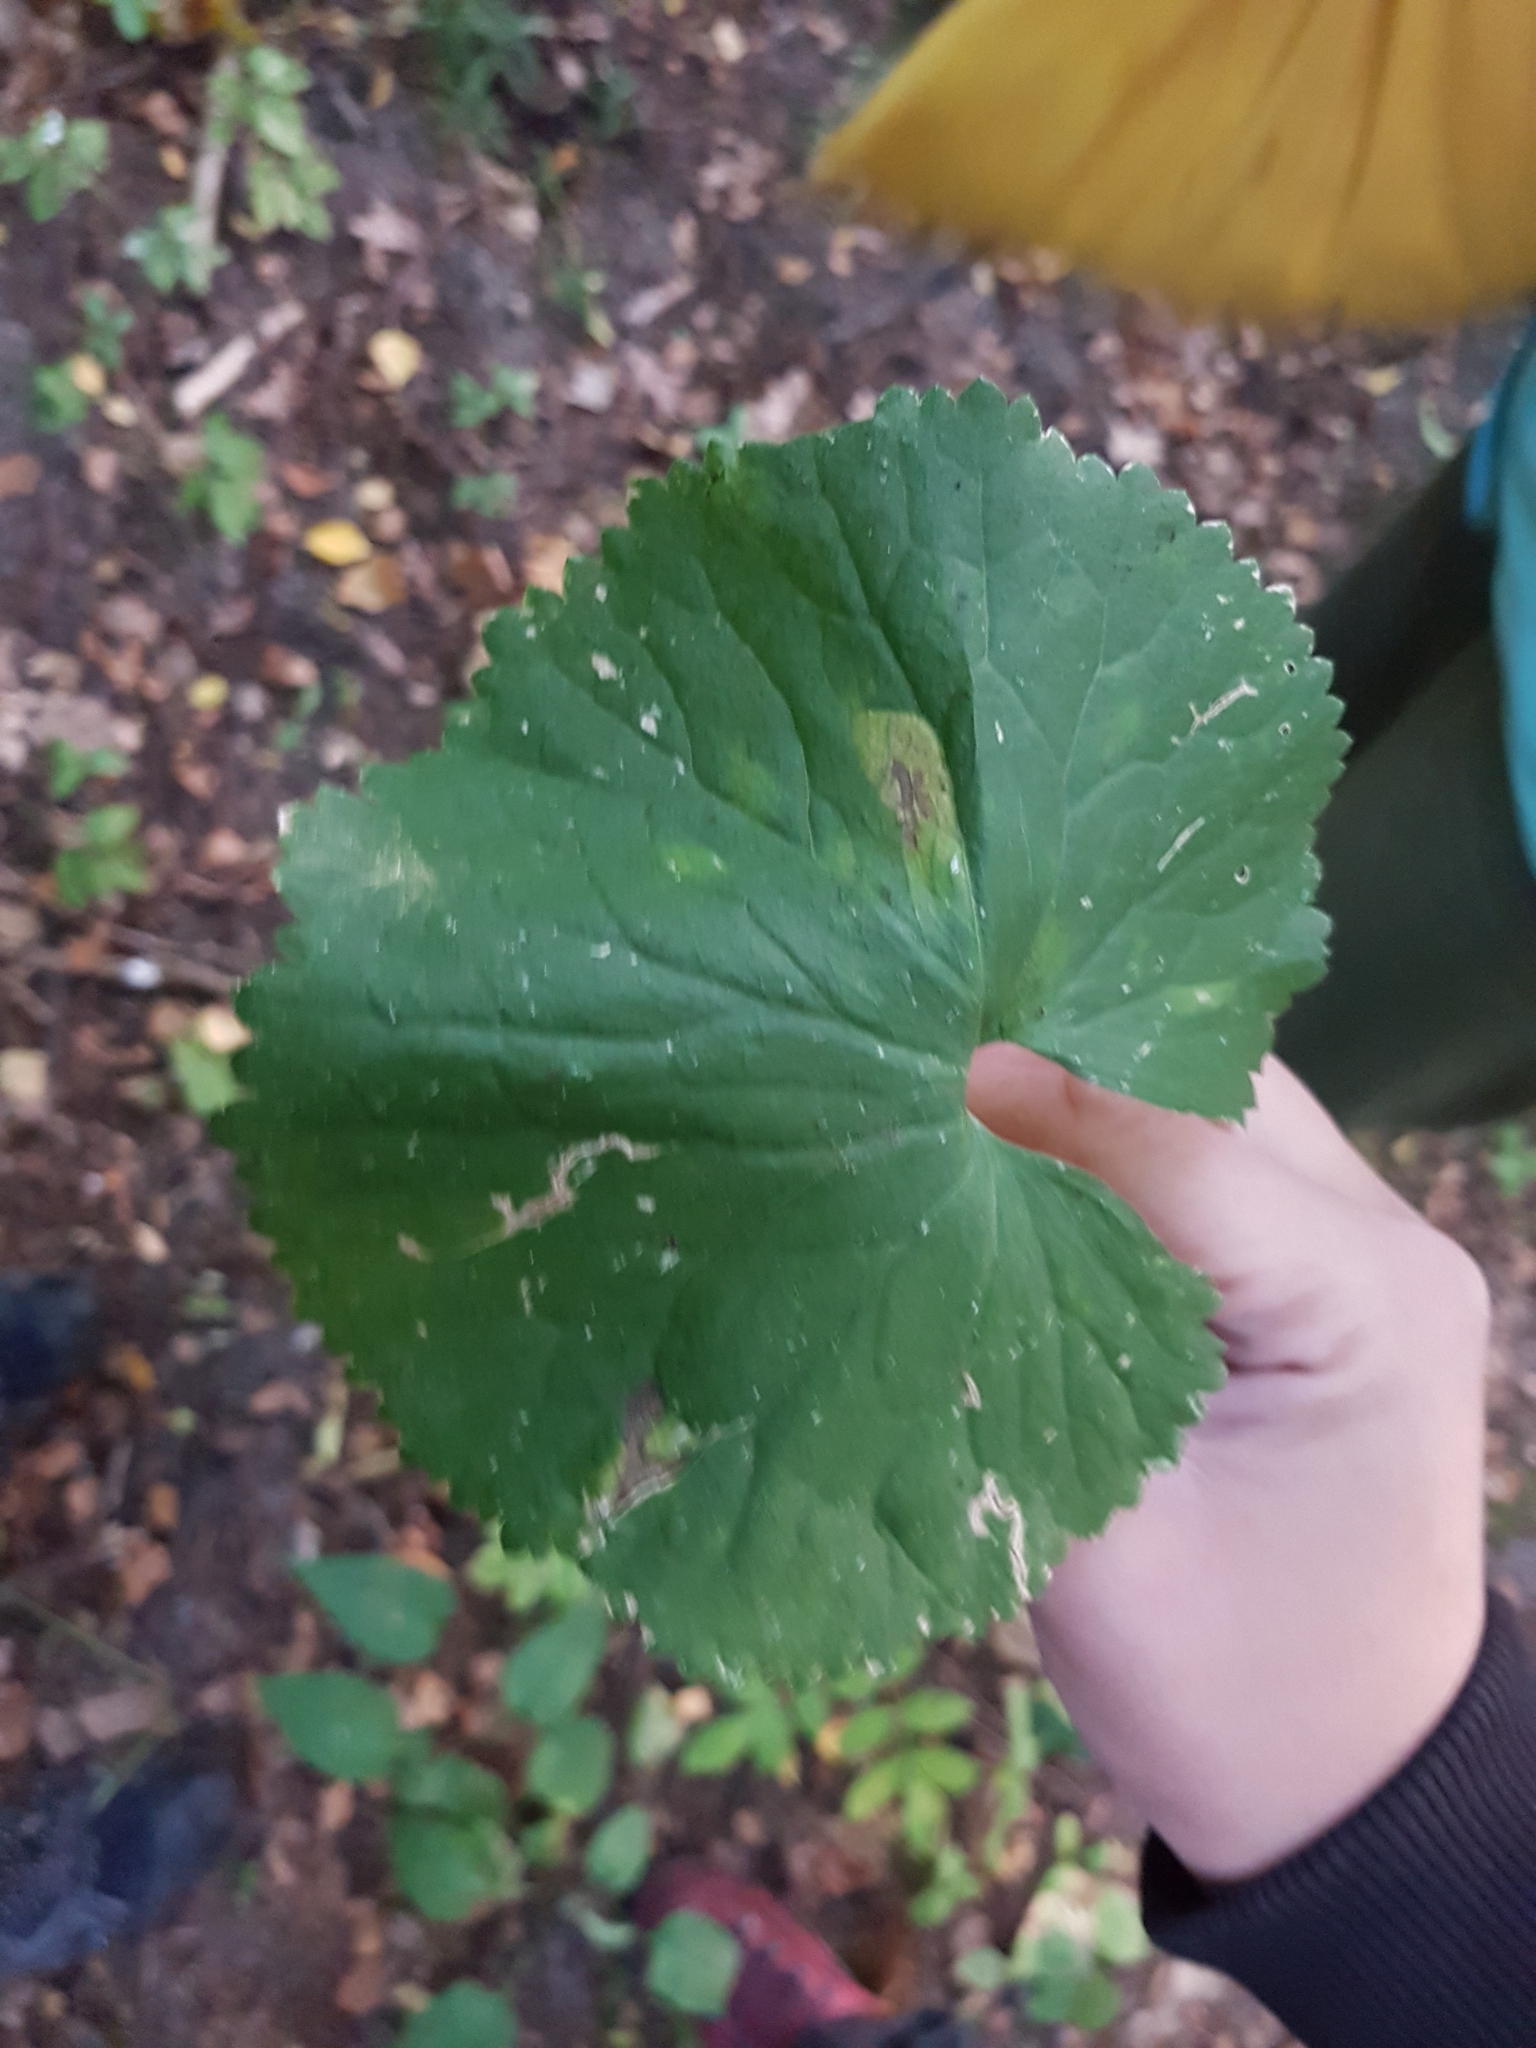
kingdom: Plantae
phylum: Tracheophyta
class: Magnoliopsida
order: Ranunculales
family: Ranunculaceae
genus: Ranunculus
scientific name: Ranunculus cassubicus
